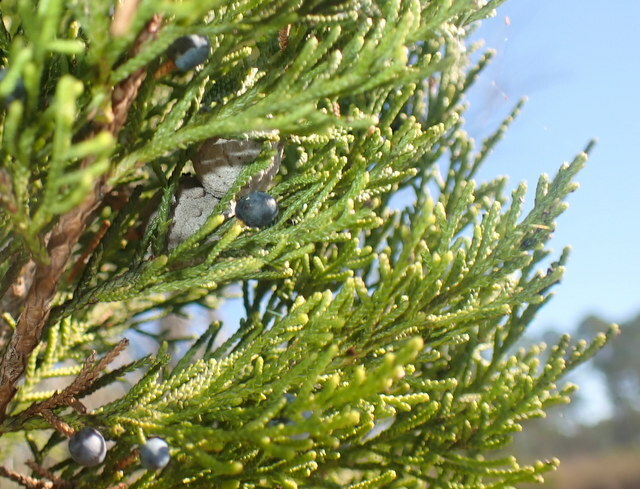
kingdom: Plantae
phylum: Tracheophyta
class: Pinopsida
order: Pinales
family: Cupressaceae
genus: Juniperus
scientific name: Juniperus virginiana
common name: Red juniper
